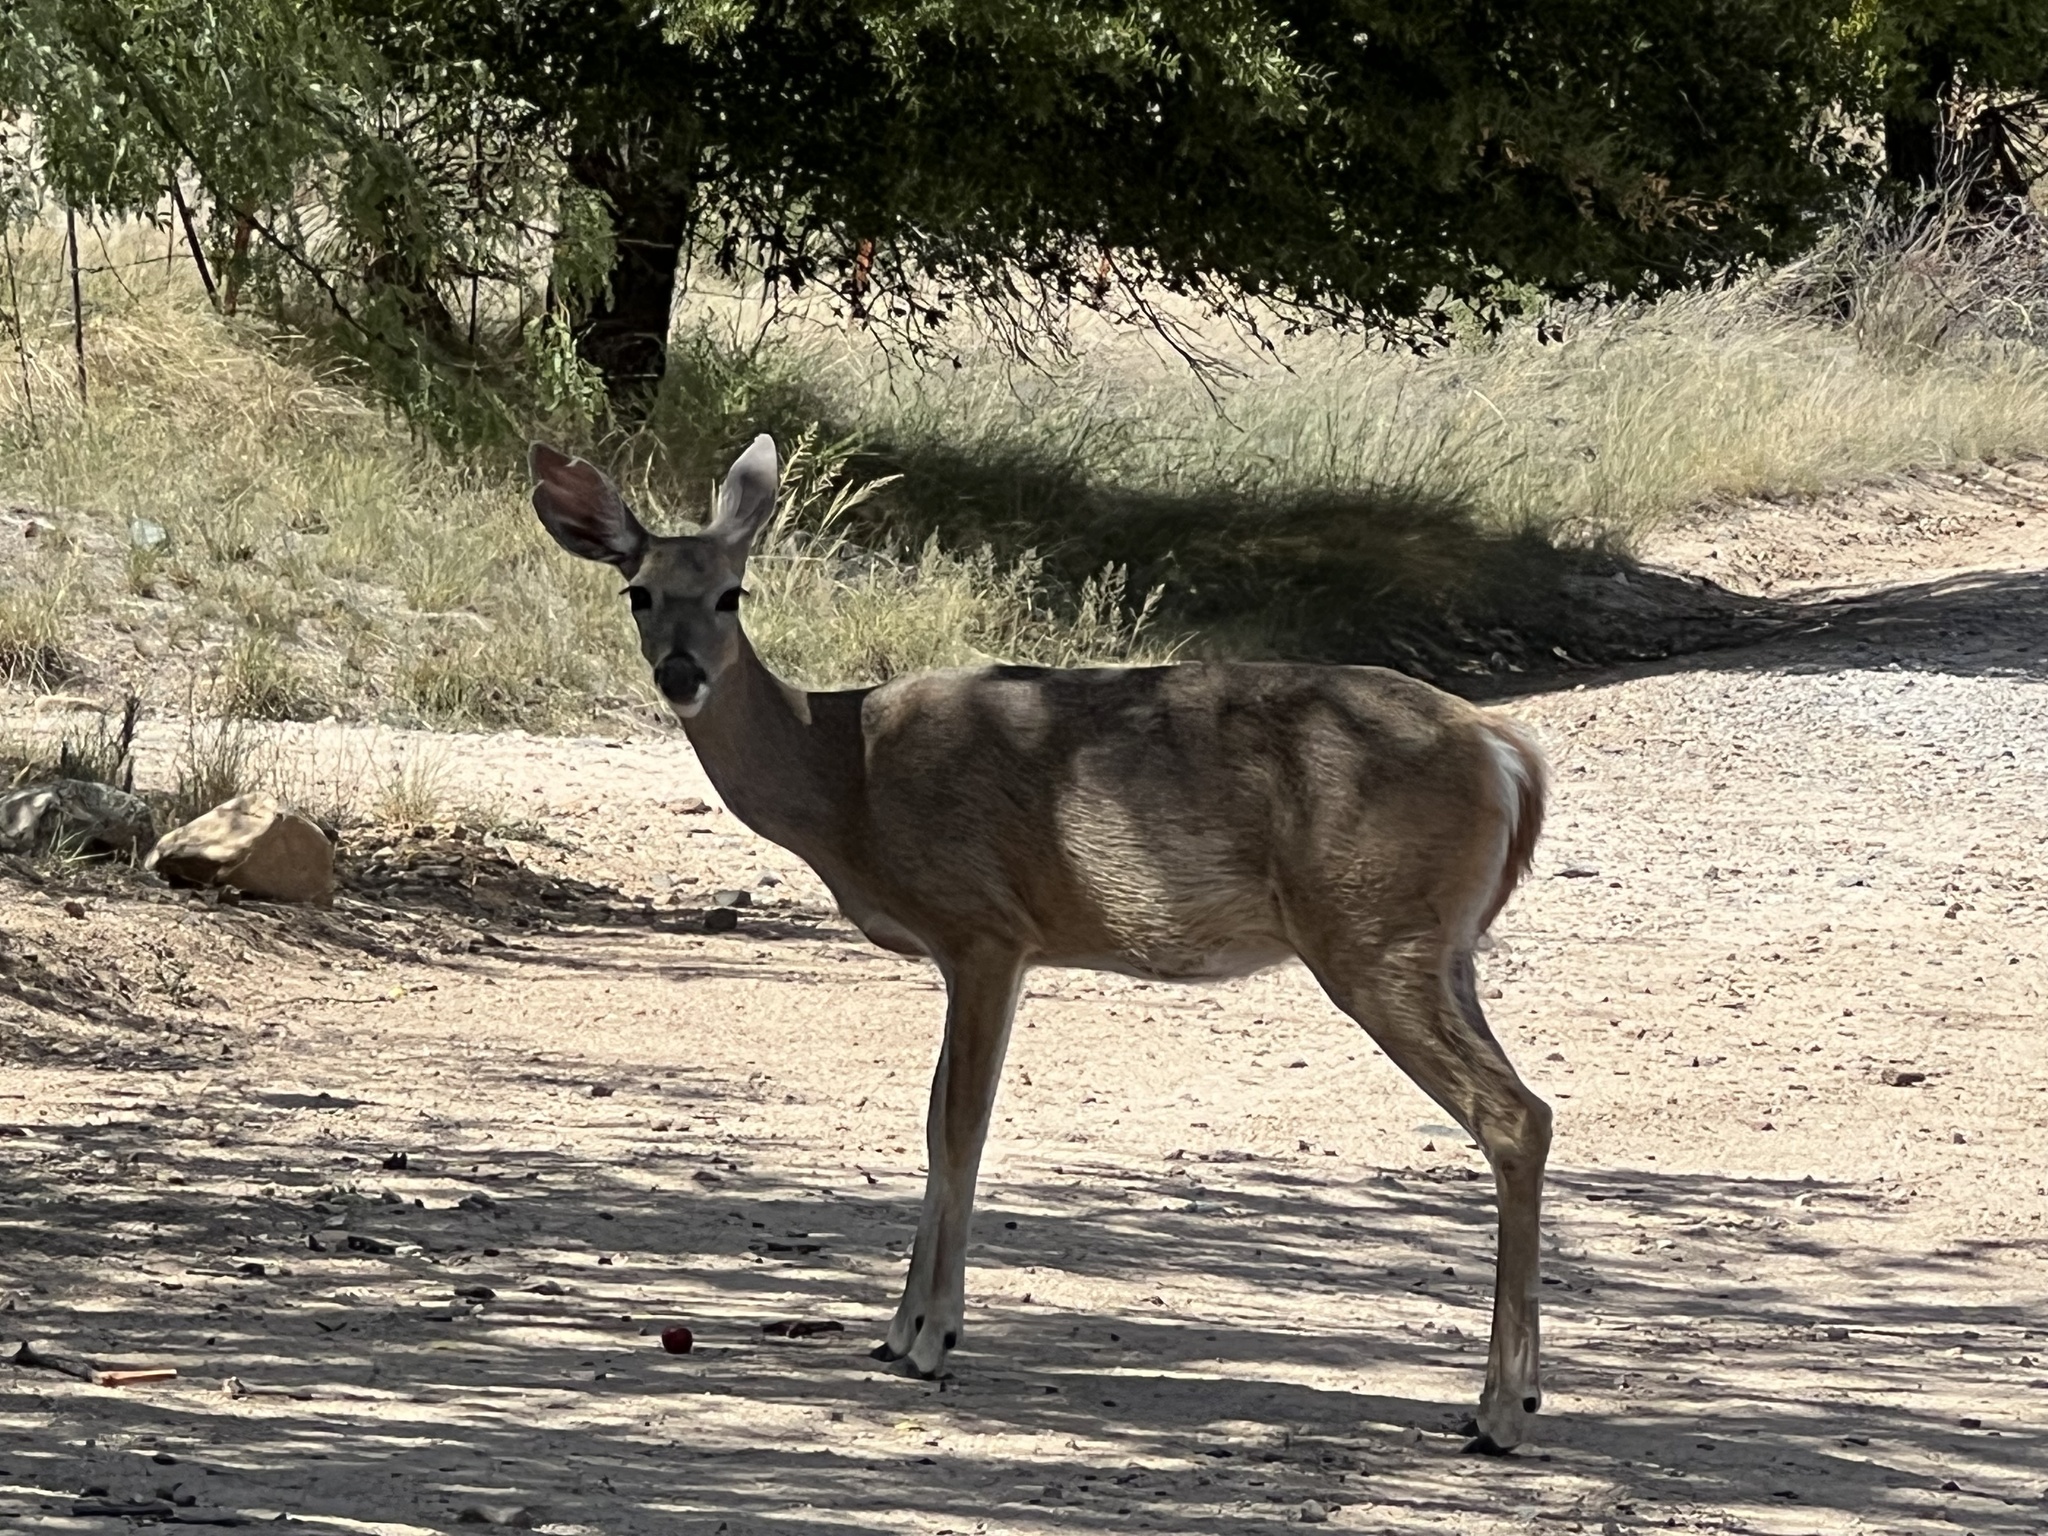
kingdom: Animalia
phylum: Chordata
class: Mammalia
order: Artiodactyla
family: Cervidae
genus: Odocoileus
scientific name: Odocoileus virginianus
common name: White-tailed deer
